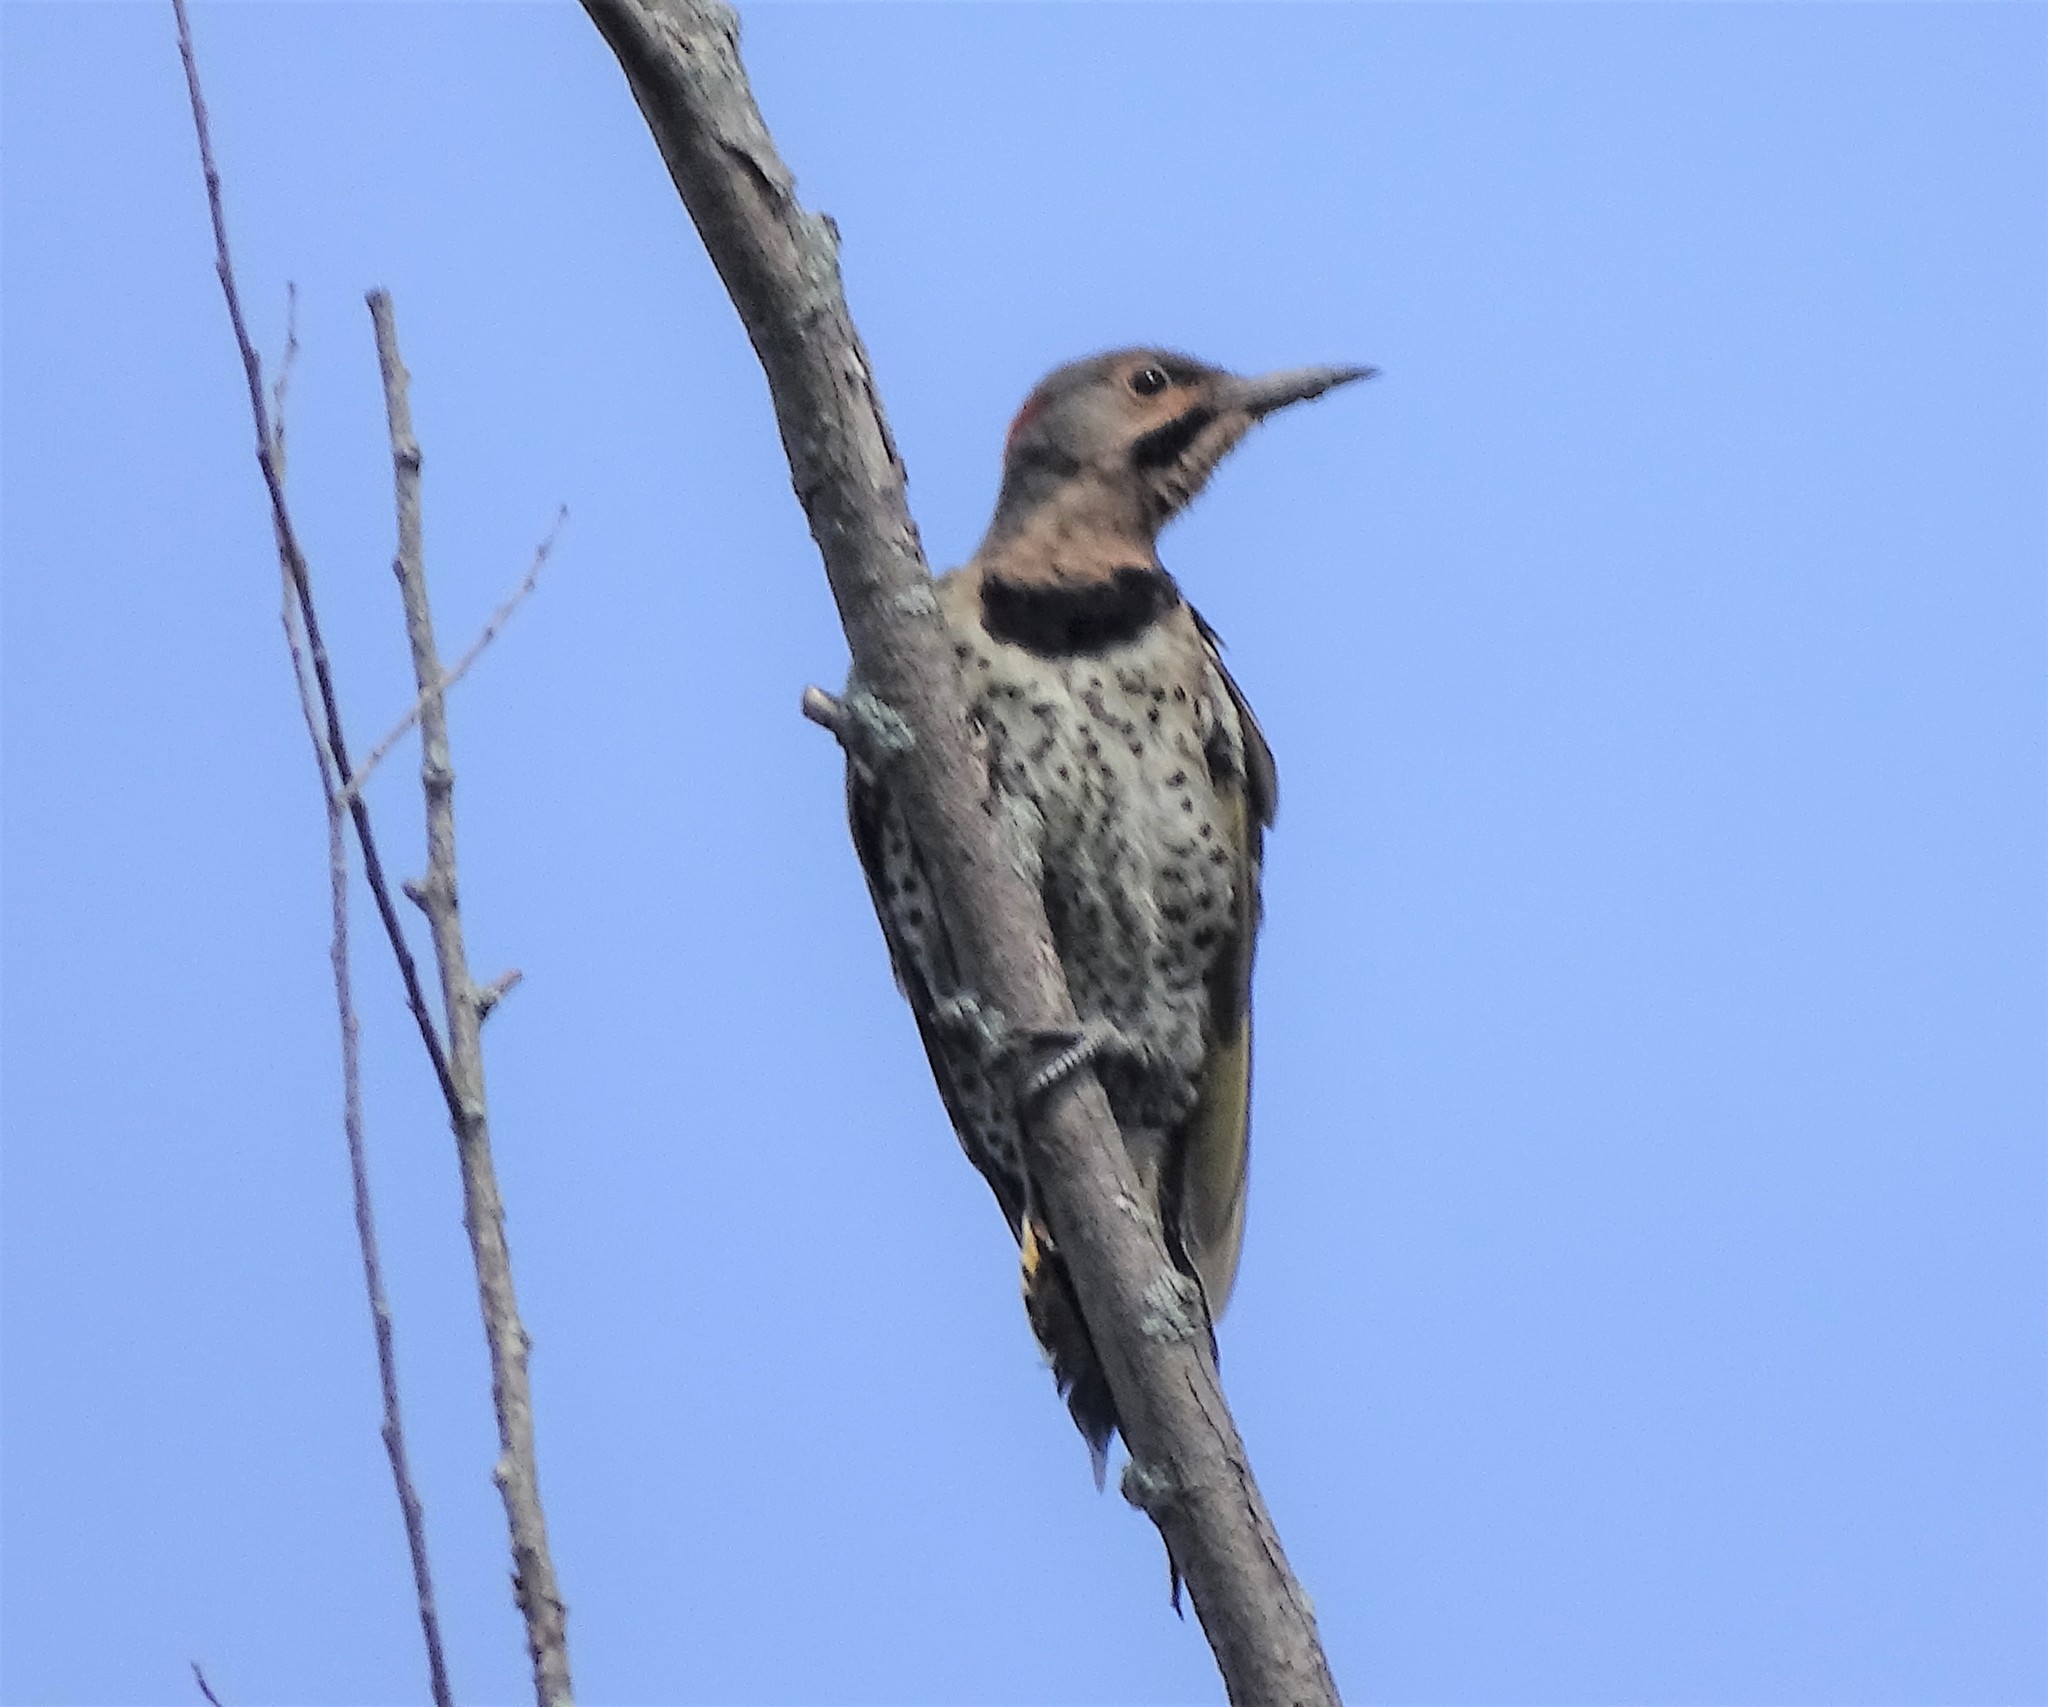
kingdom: Animalia
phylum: Chordata
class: Aves
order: Piciformes
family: Picidae
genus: Colaptes
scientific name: Colaptes auratus
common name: Northern flicker
